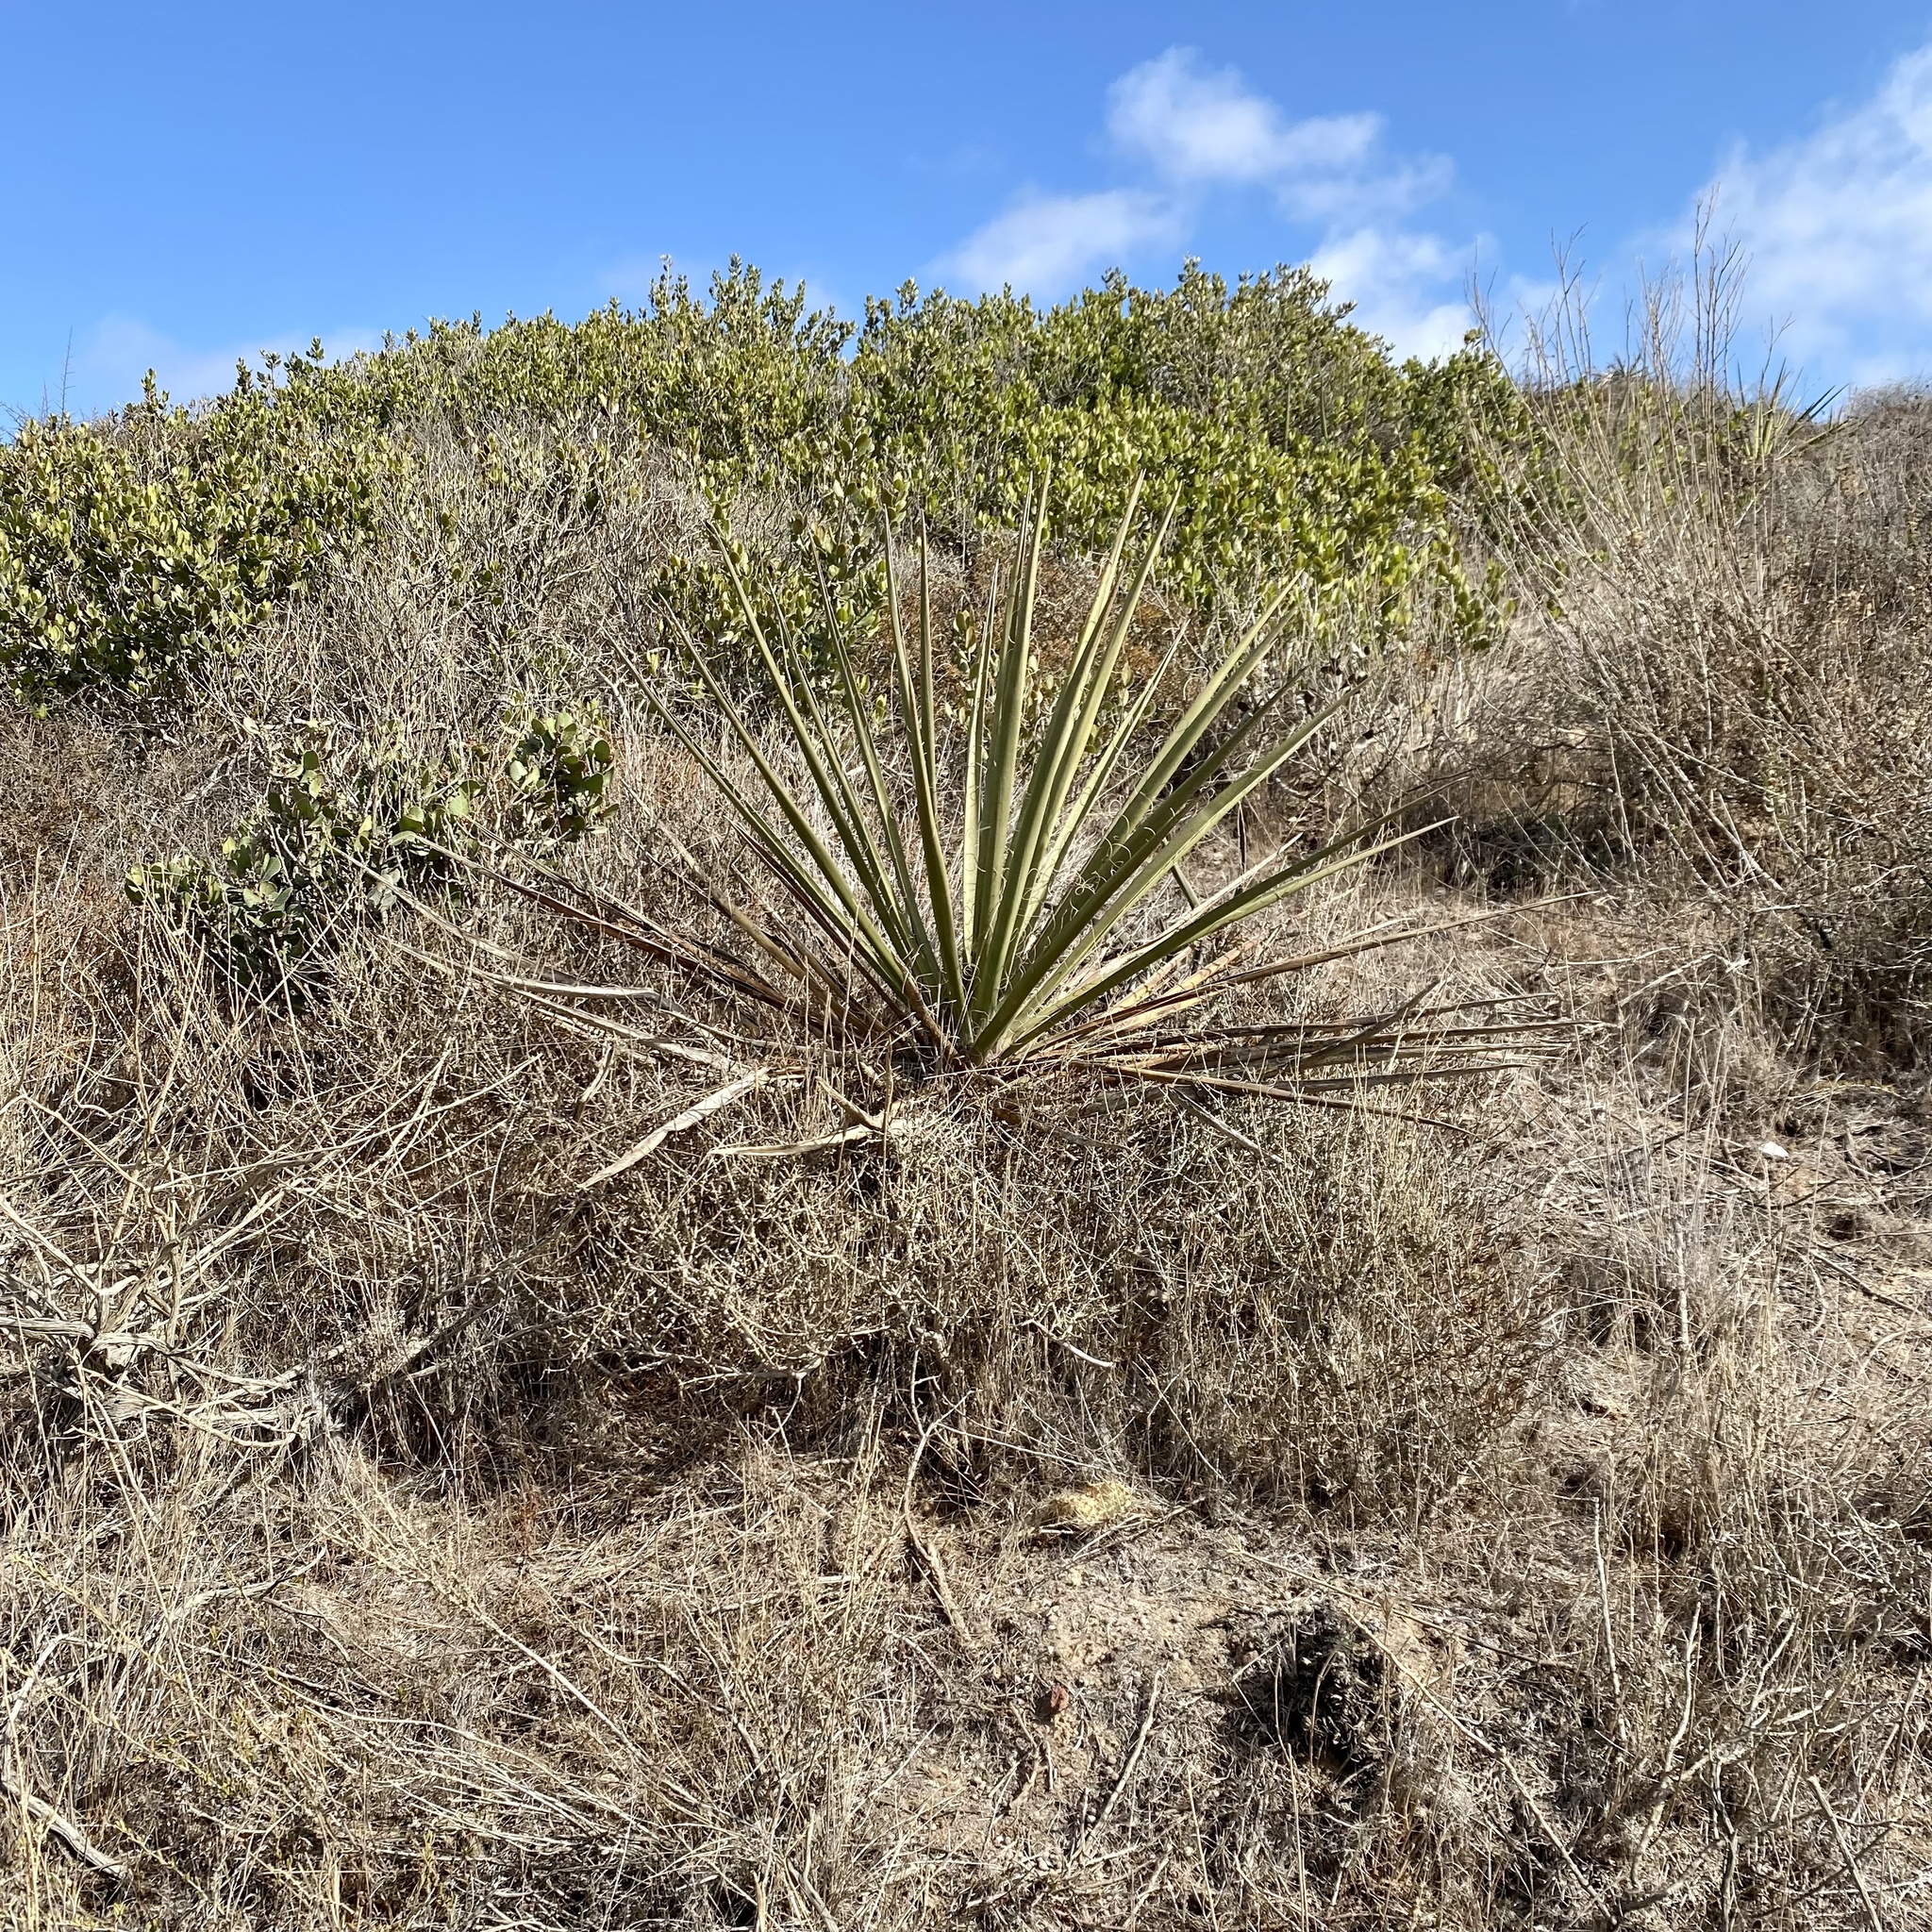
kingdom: Plantae
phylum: Tracheophyta
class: Liliopsida
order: Asparagales
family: Asparagaceae
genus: Yucca
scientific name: Yucca schidigera
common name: Mojave yucca
